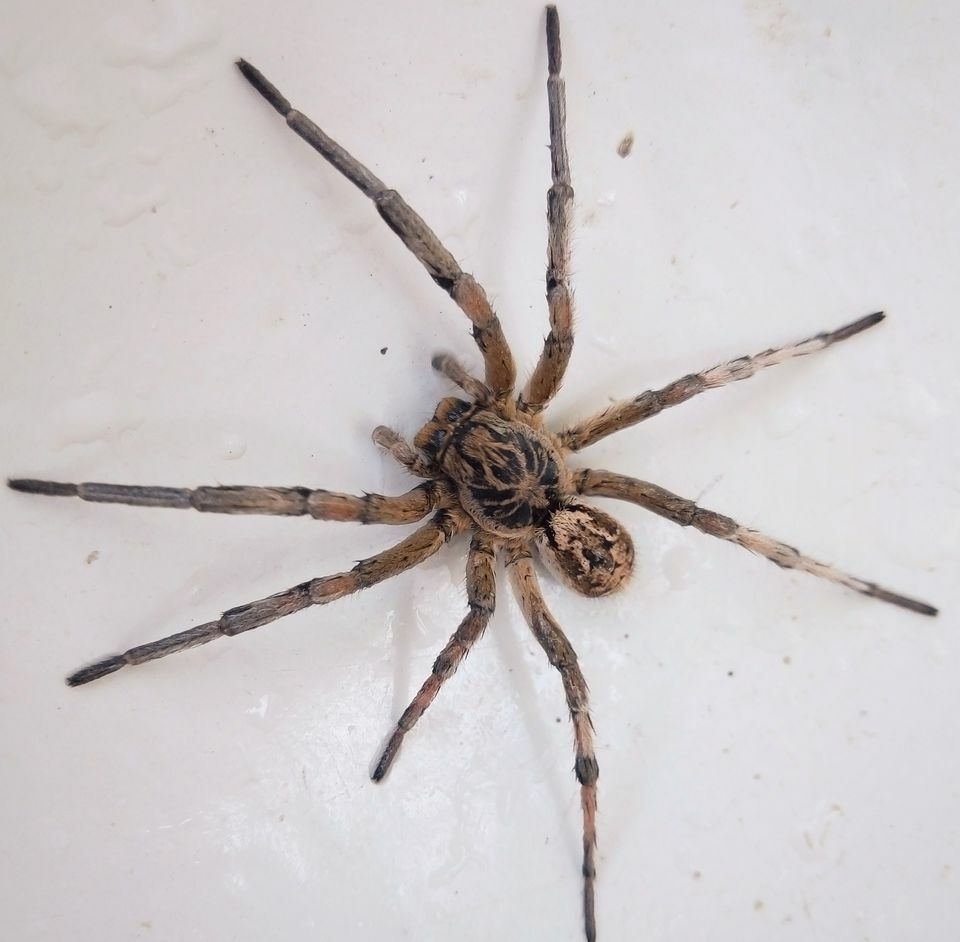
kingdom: Animalia
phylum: Arthropoda
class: Arachnida
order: Araneae
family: Lycosidae
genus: Geolycosa
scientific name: Geolycosa vultuosa
